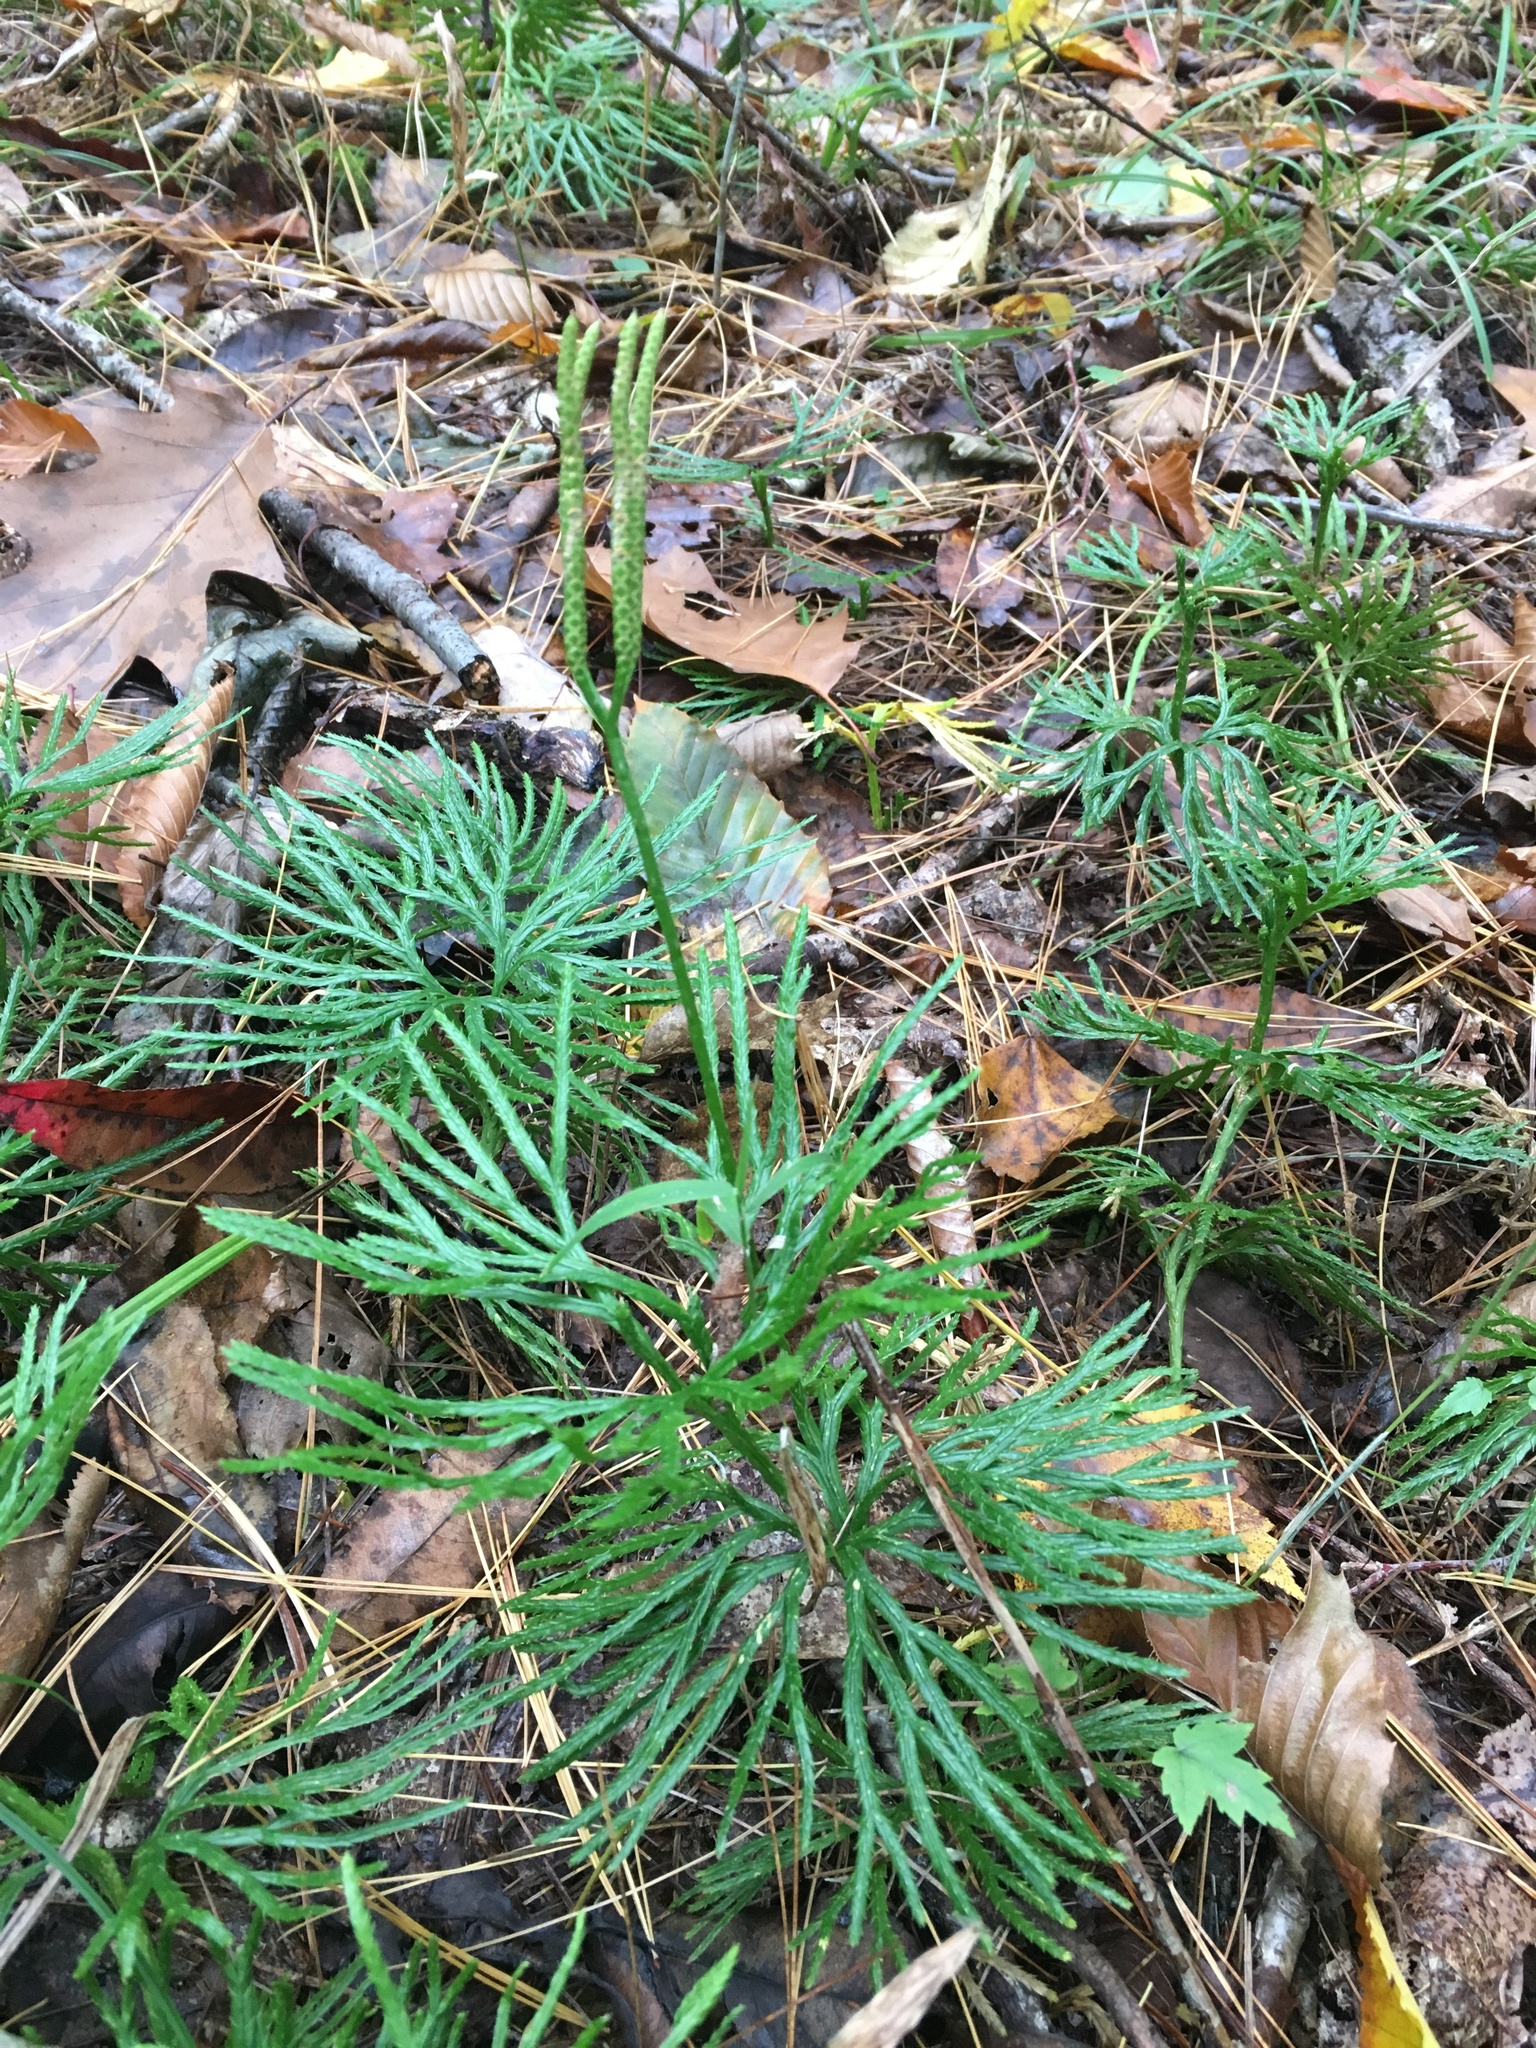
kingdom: Plantae
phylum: Tracheophyta
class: Lycopodiopsida
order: Lycopodiales
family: Lycopodiaceae
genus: Diphasiastrum
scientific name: Diphasiastrum digitatum
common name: Southern running-pine
